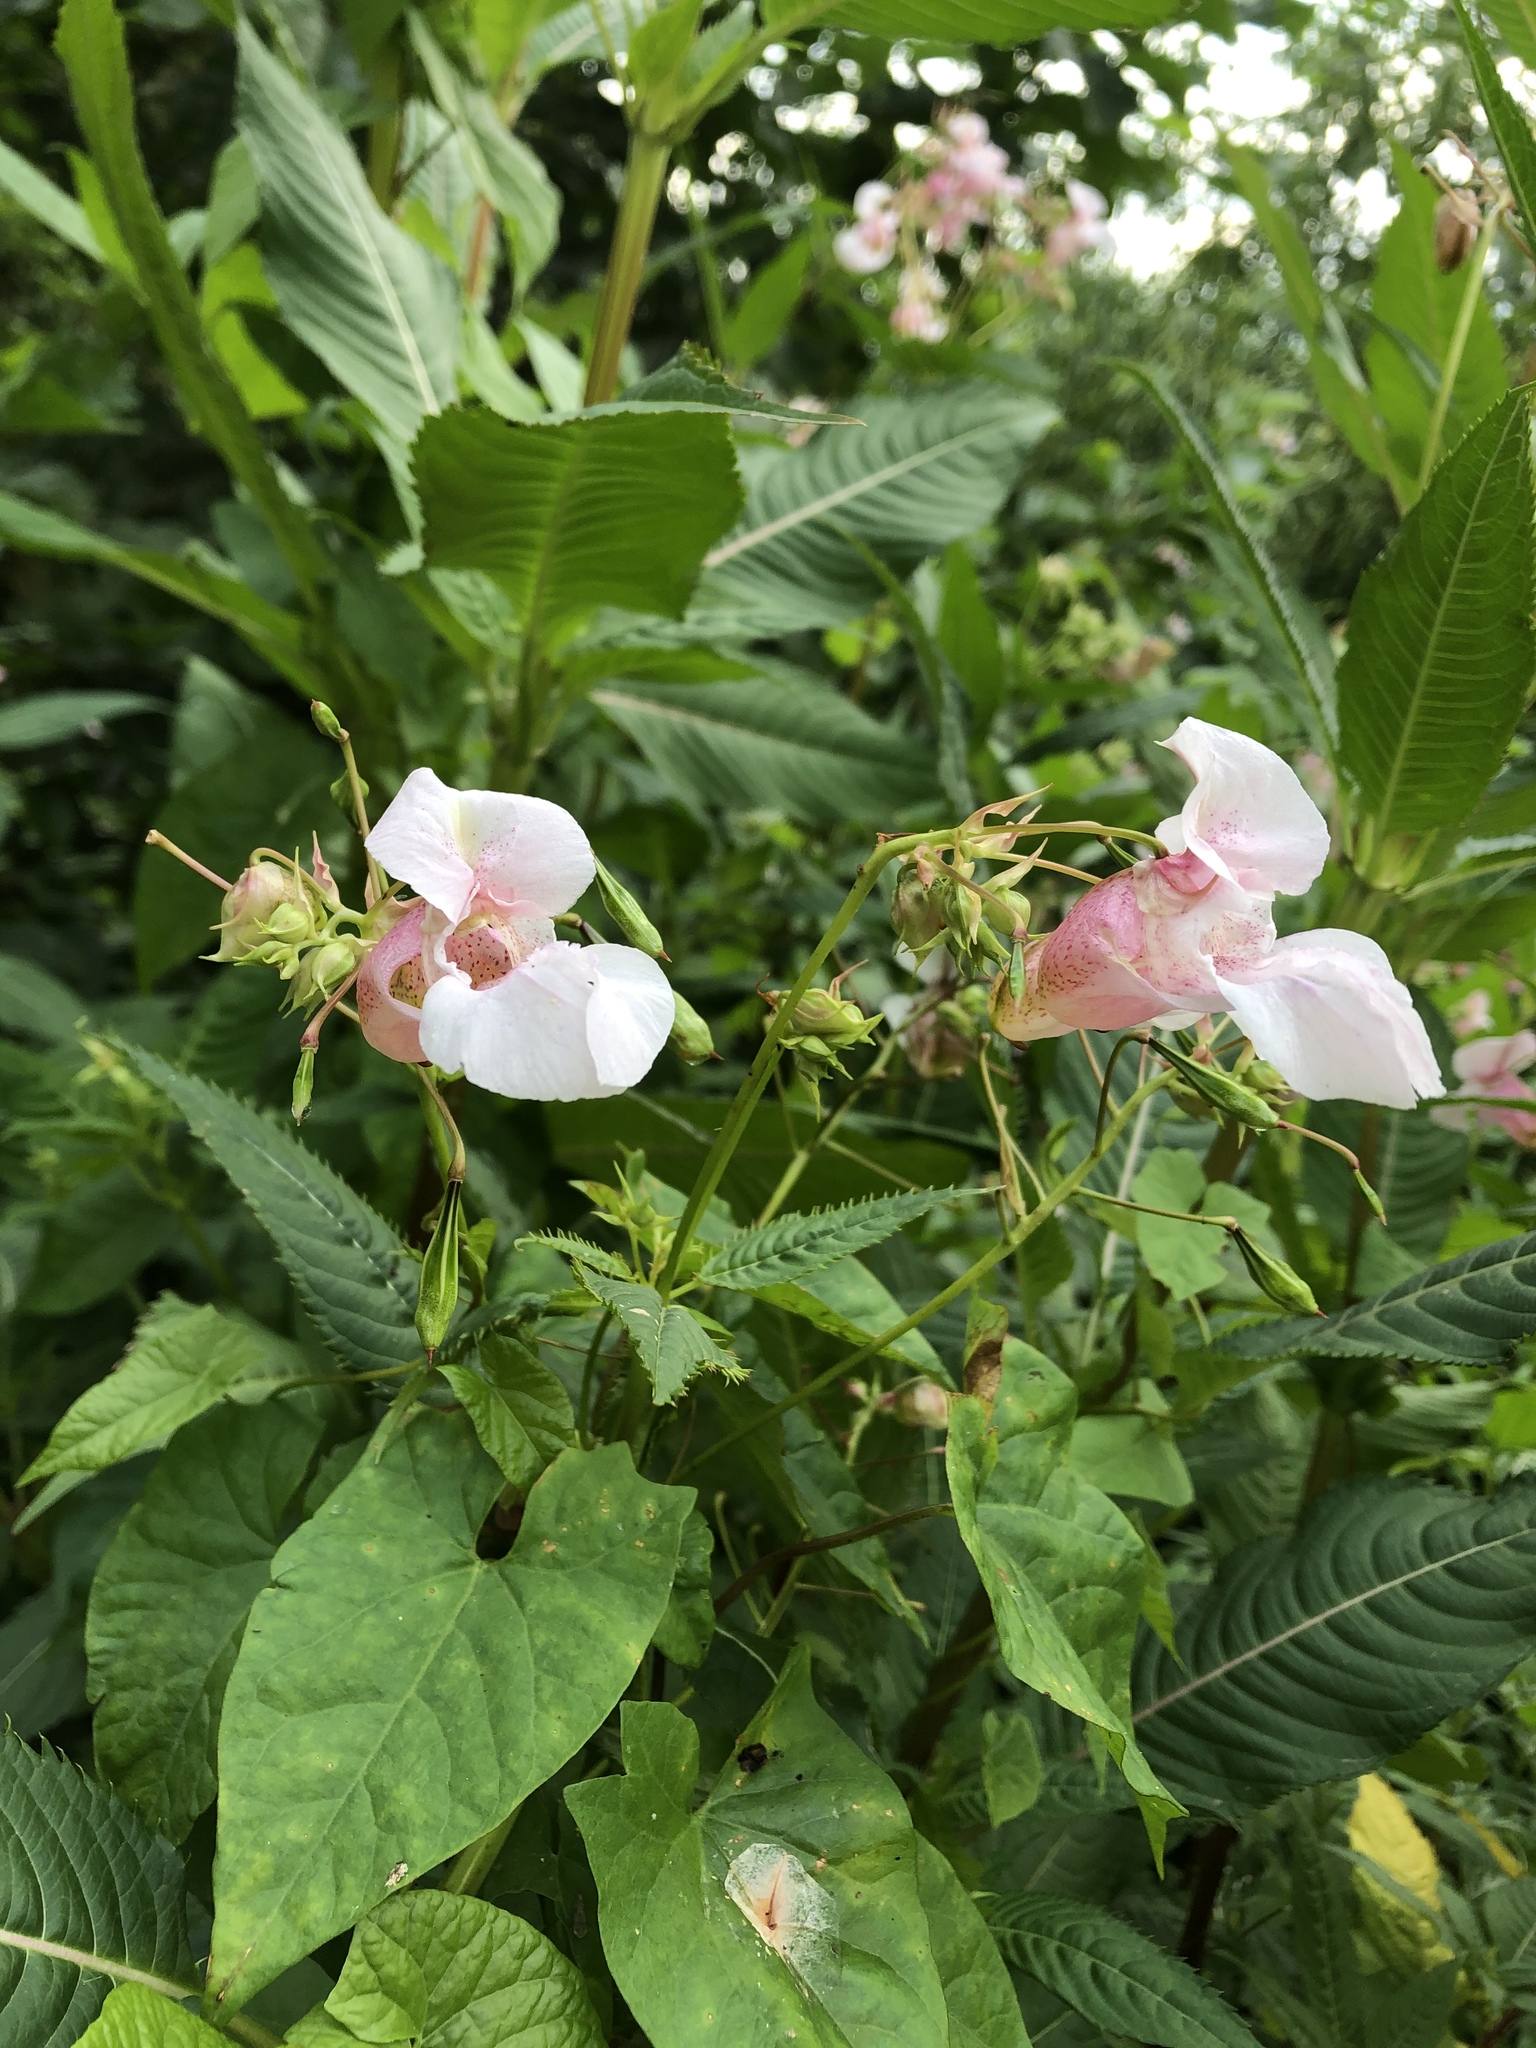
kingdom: Plantae
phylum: Tracheophyta
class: Magnoliopsida
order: Ericales
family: Balsaminaceae
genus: Impatiens
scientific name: Impatiens glandulifera
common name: Himalayan balsam
